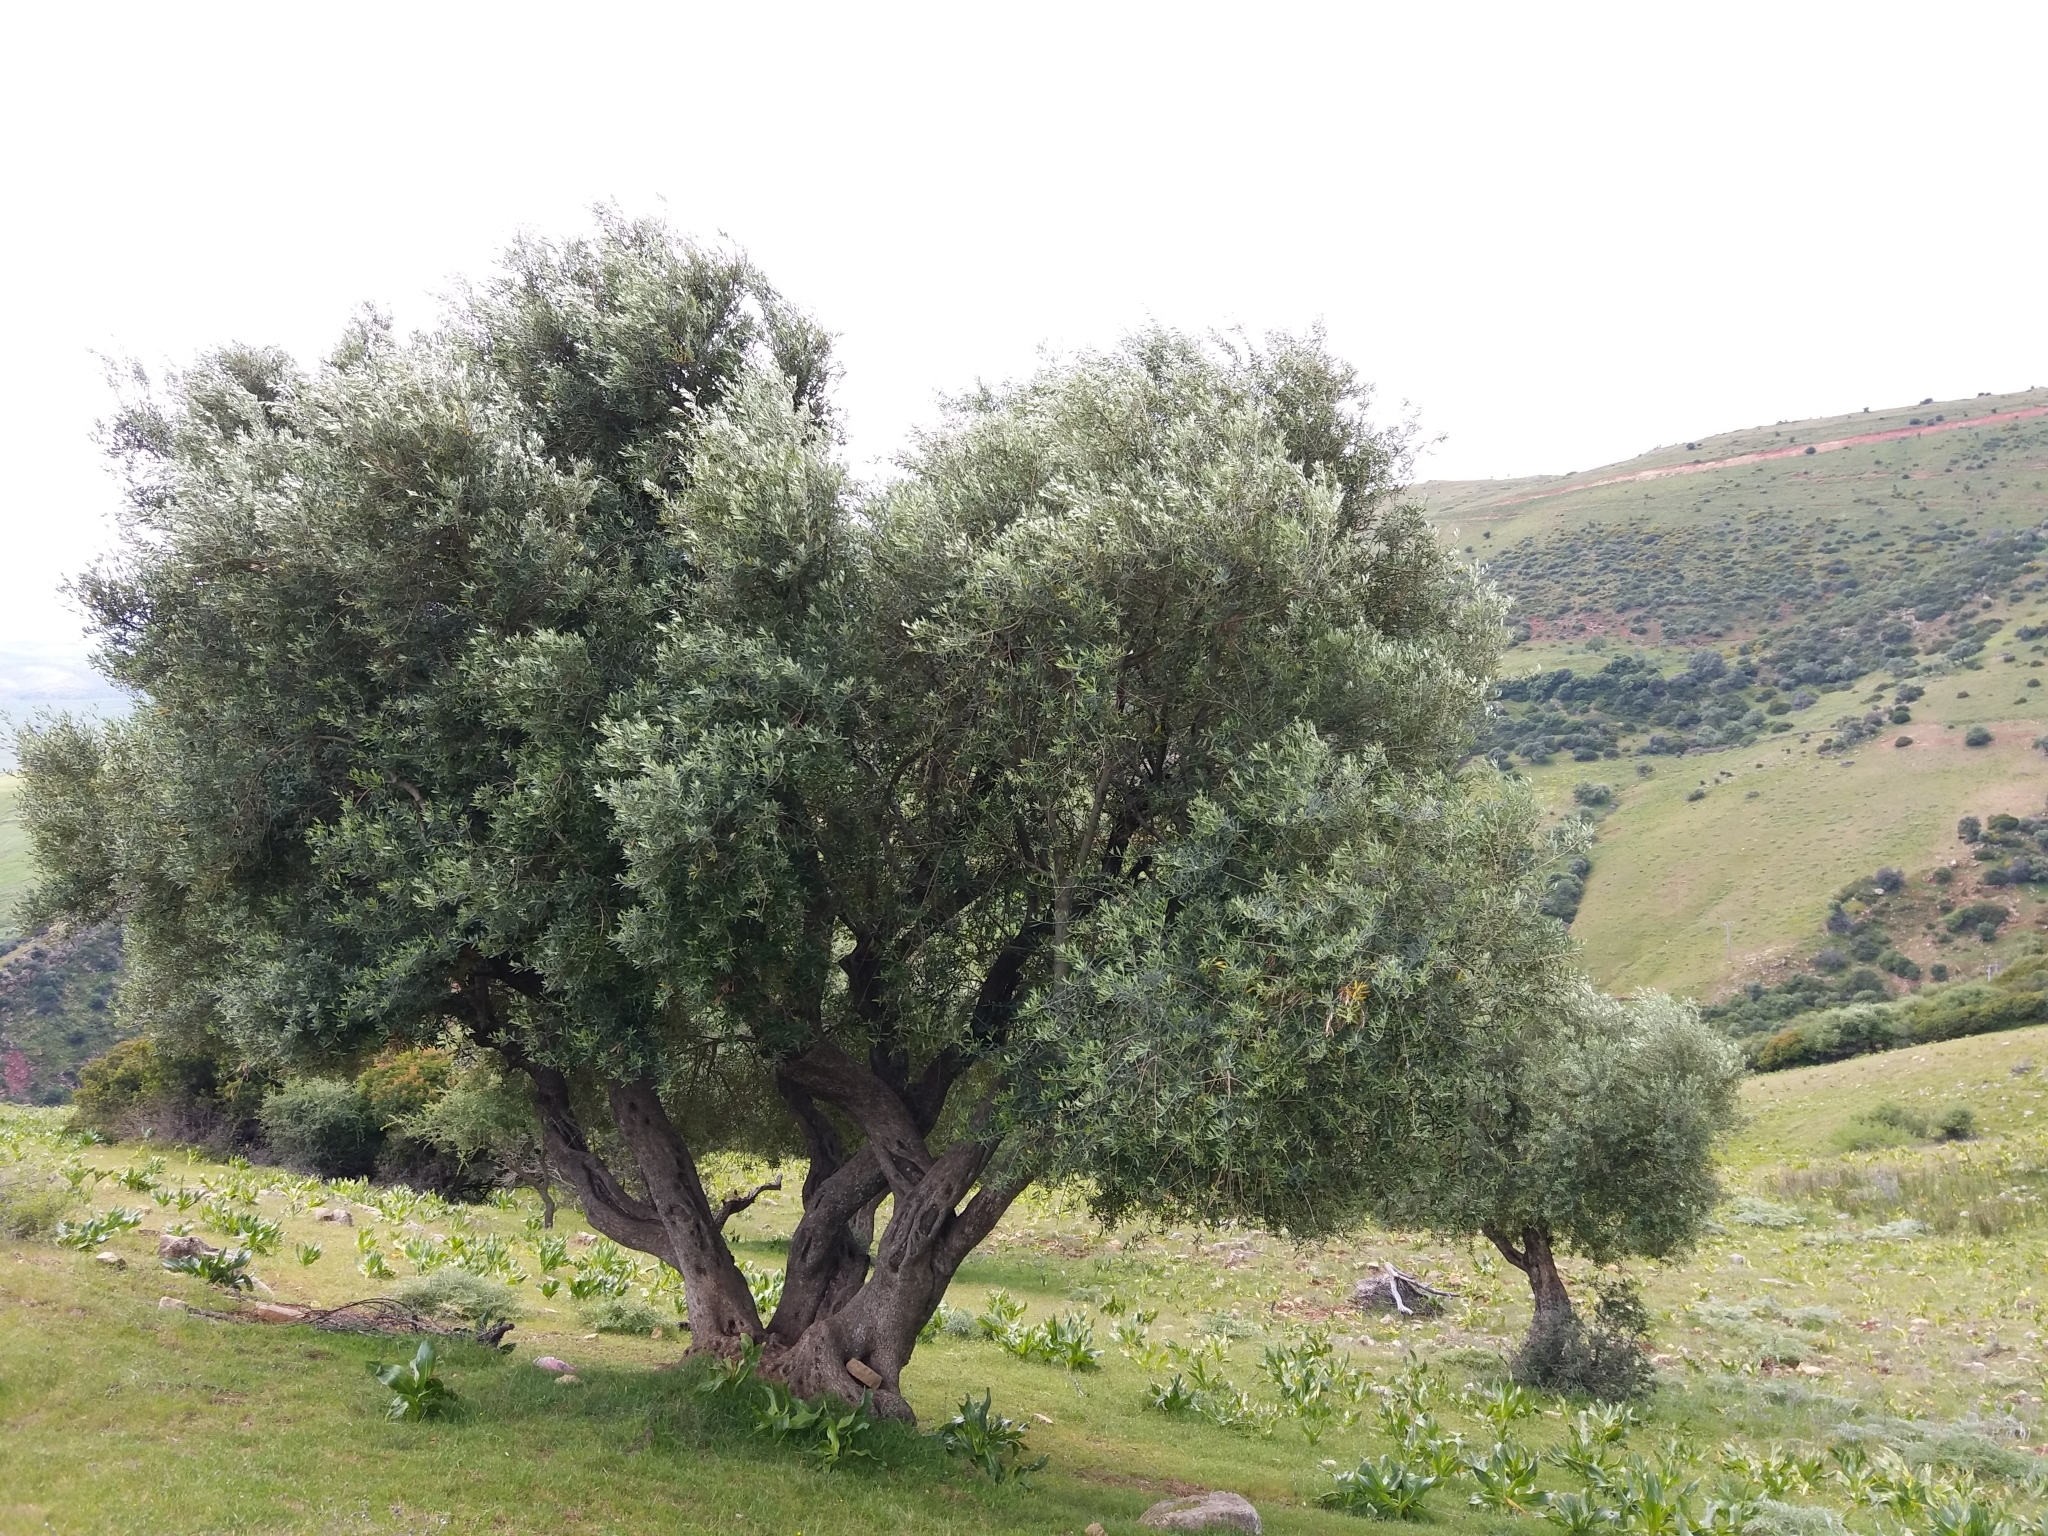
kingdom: Plantae
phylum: Tracheophyta
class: Magnoliopsida
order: Lamiales
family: Oleaceae
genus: Olea
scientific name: Olea europaea
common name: Olive
